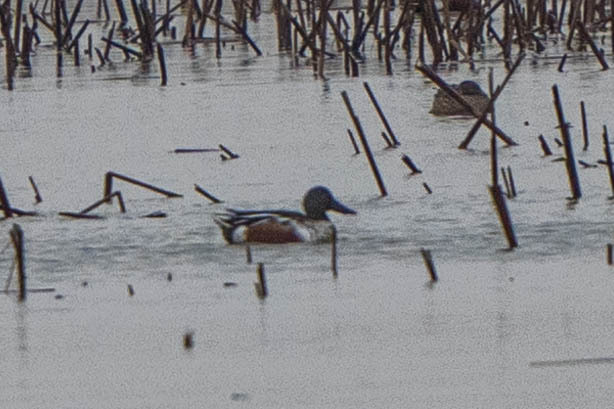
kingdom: Animalia
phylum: Chordata
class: Aves
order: Anseriformes
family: Anatidae
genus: Spatula
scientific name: Spatula clypeata
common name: Northern shoveler
